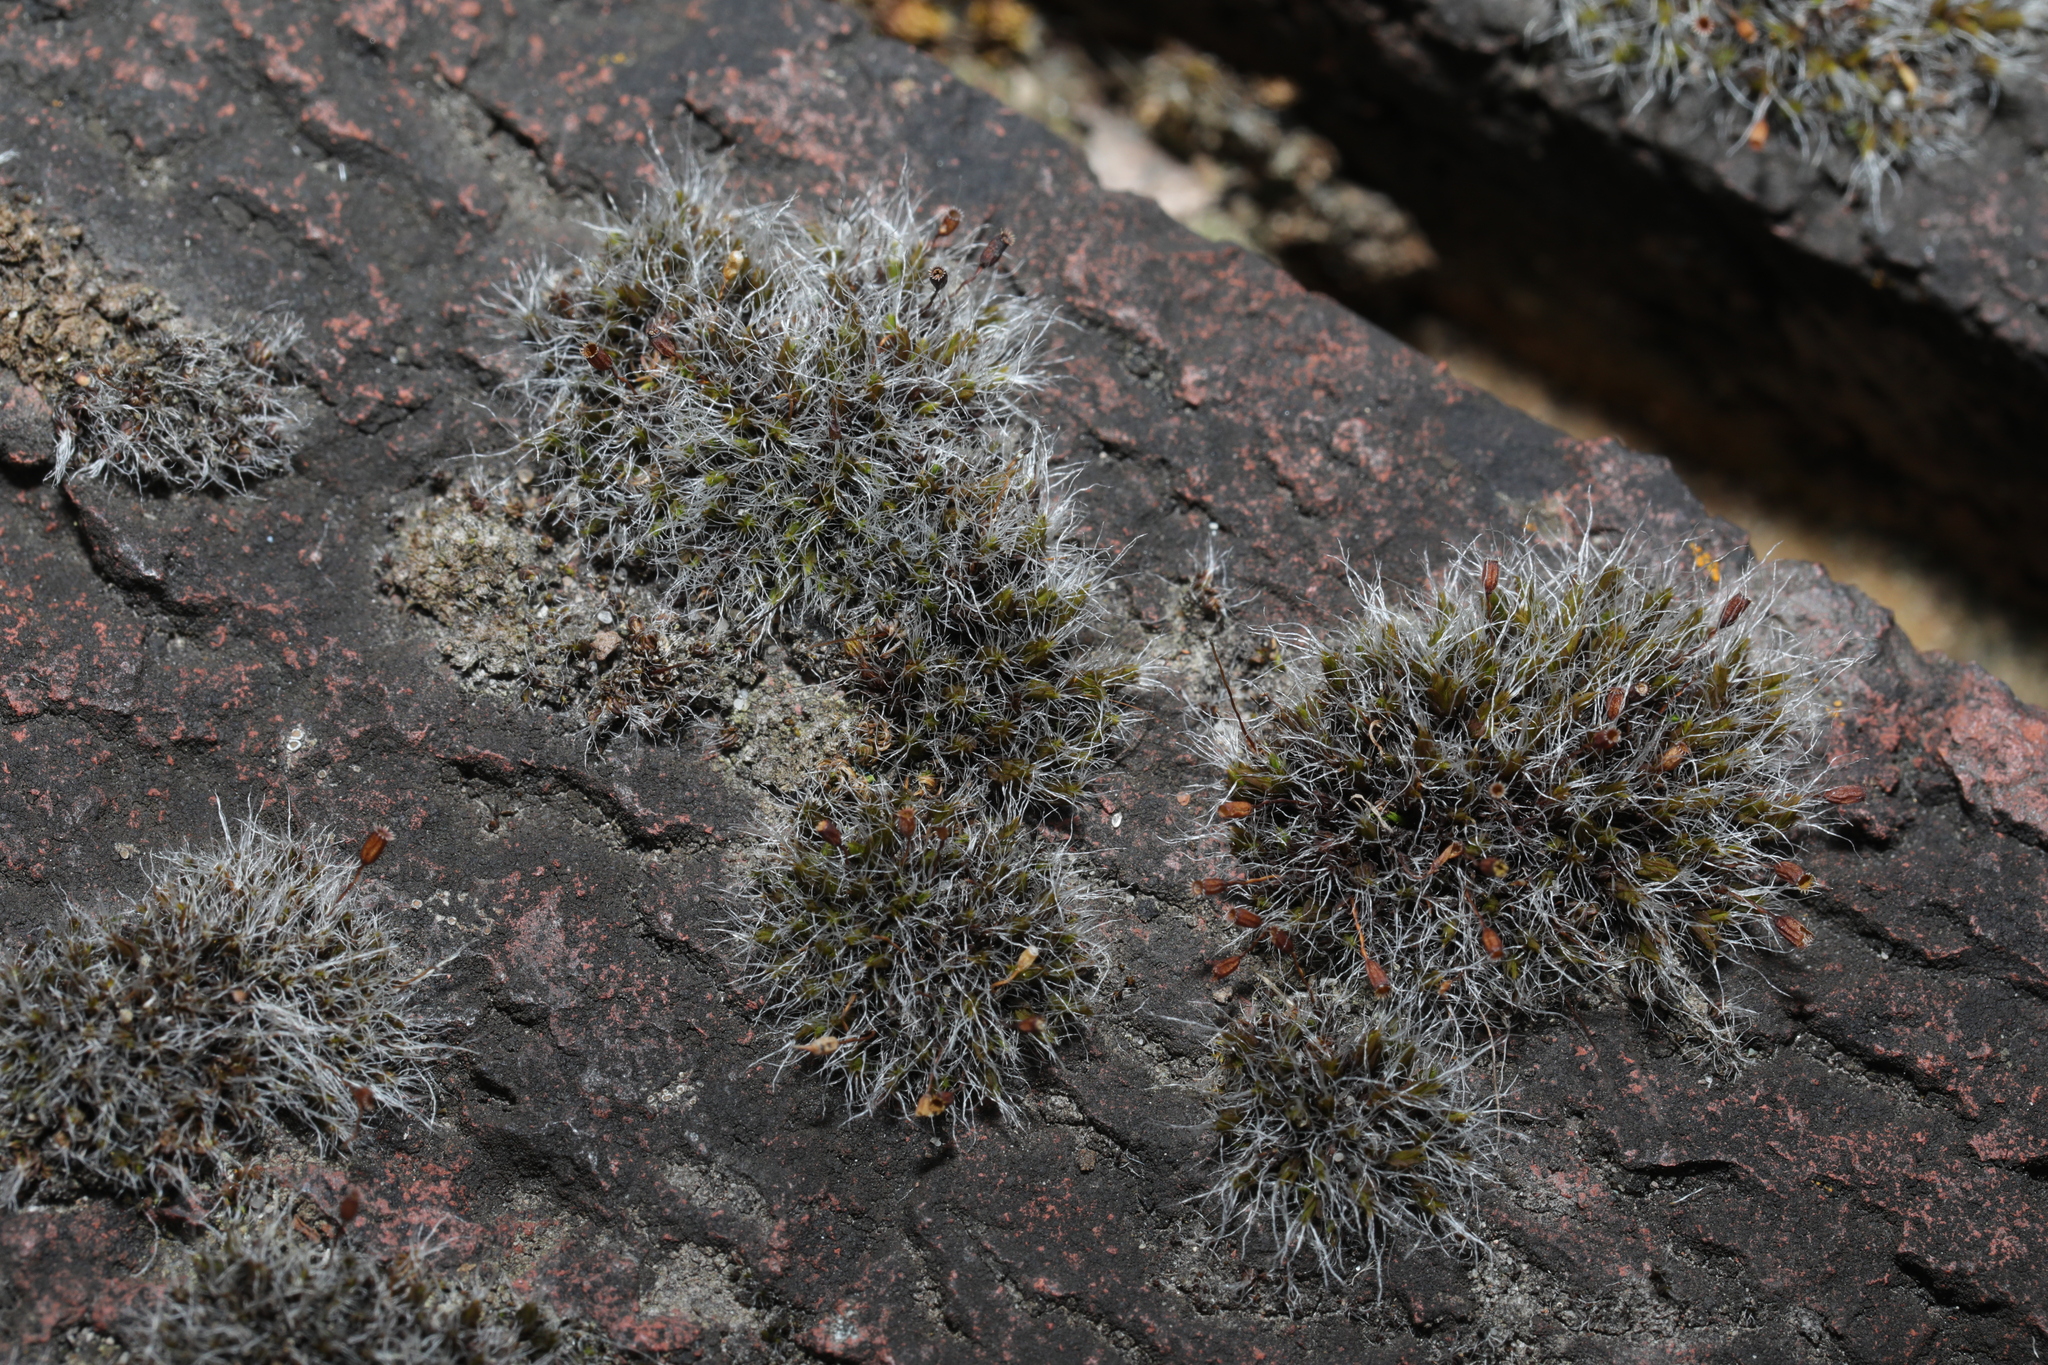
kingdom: Plantae
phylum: Bryophyta
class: Bryopsida
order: Grimmiales
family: Grimmiaceae
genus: Grimmia
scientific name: Grimmia pulvinata
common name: Grey-cushioned grimmia
